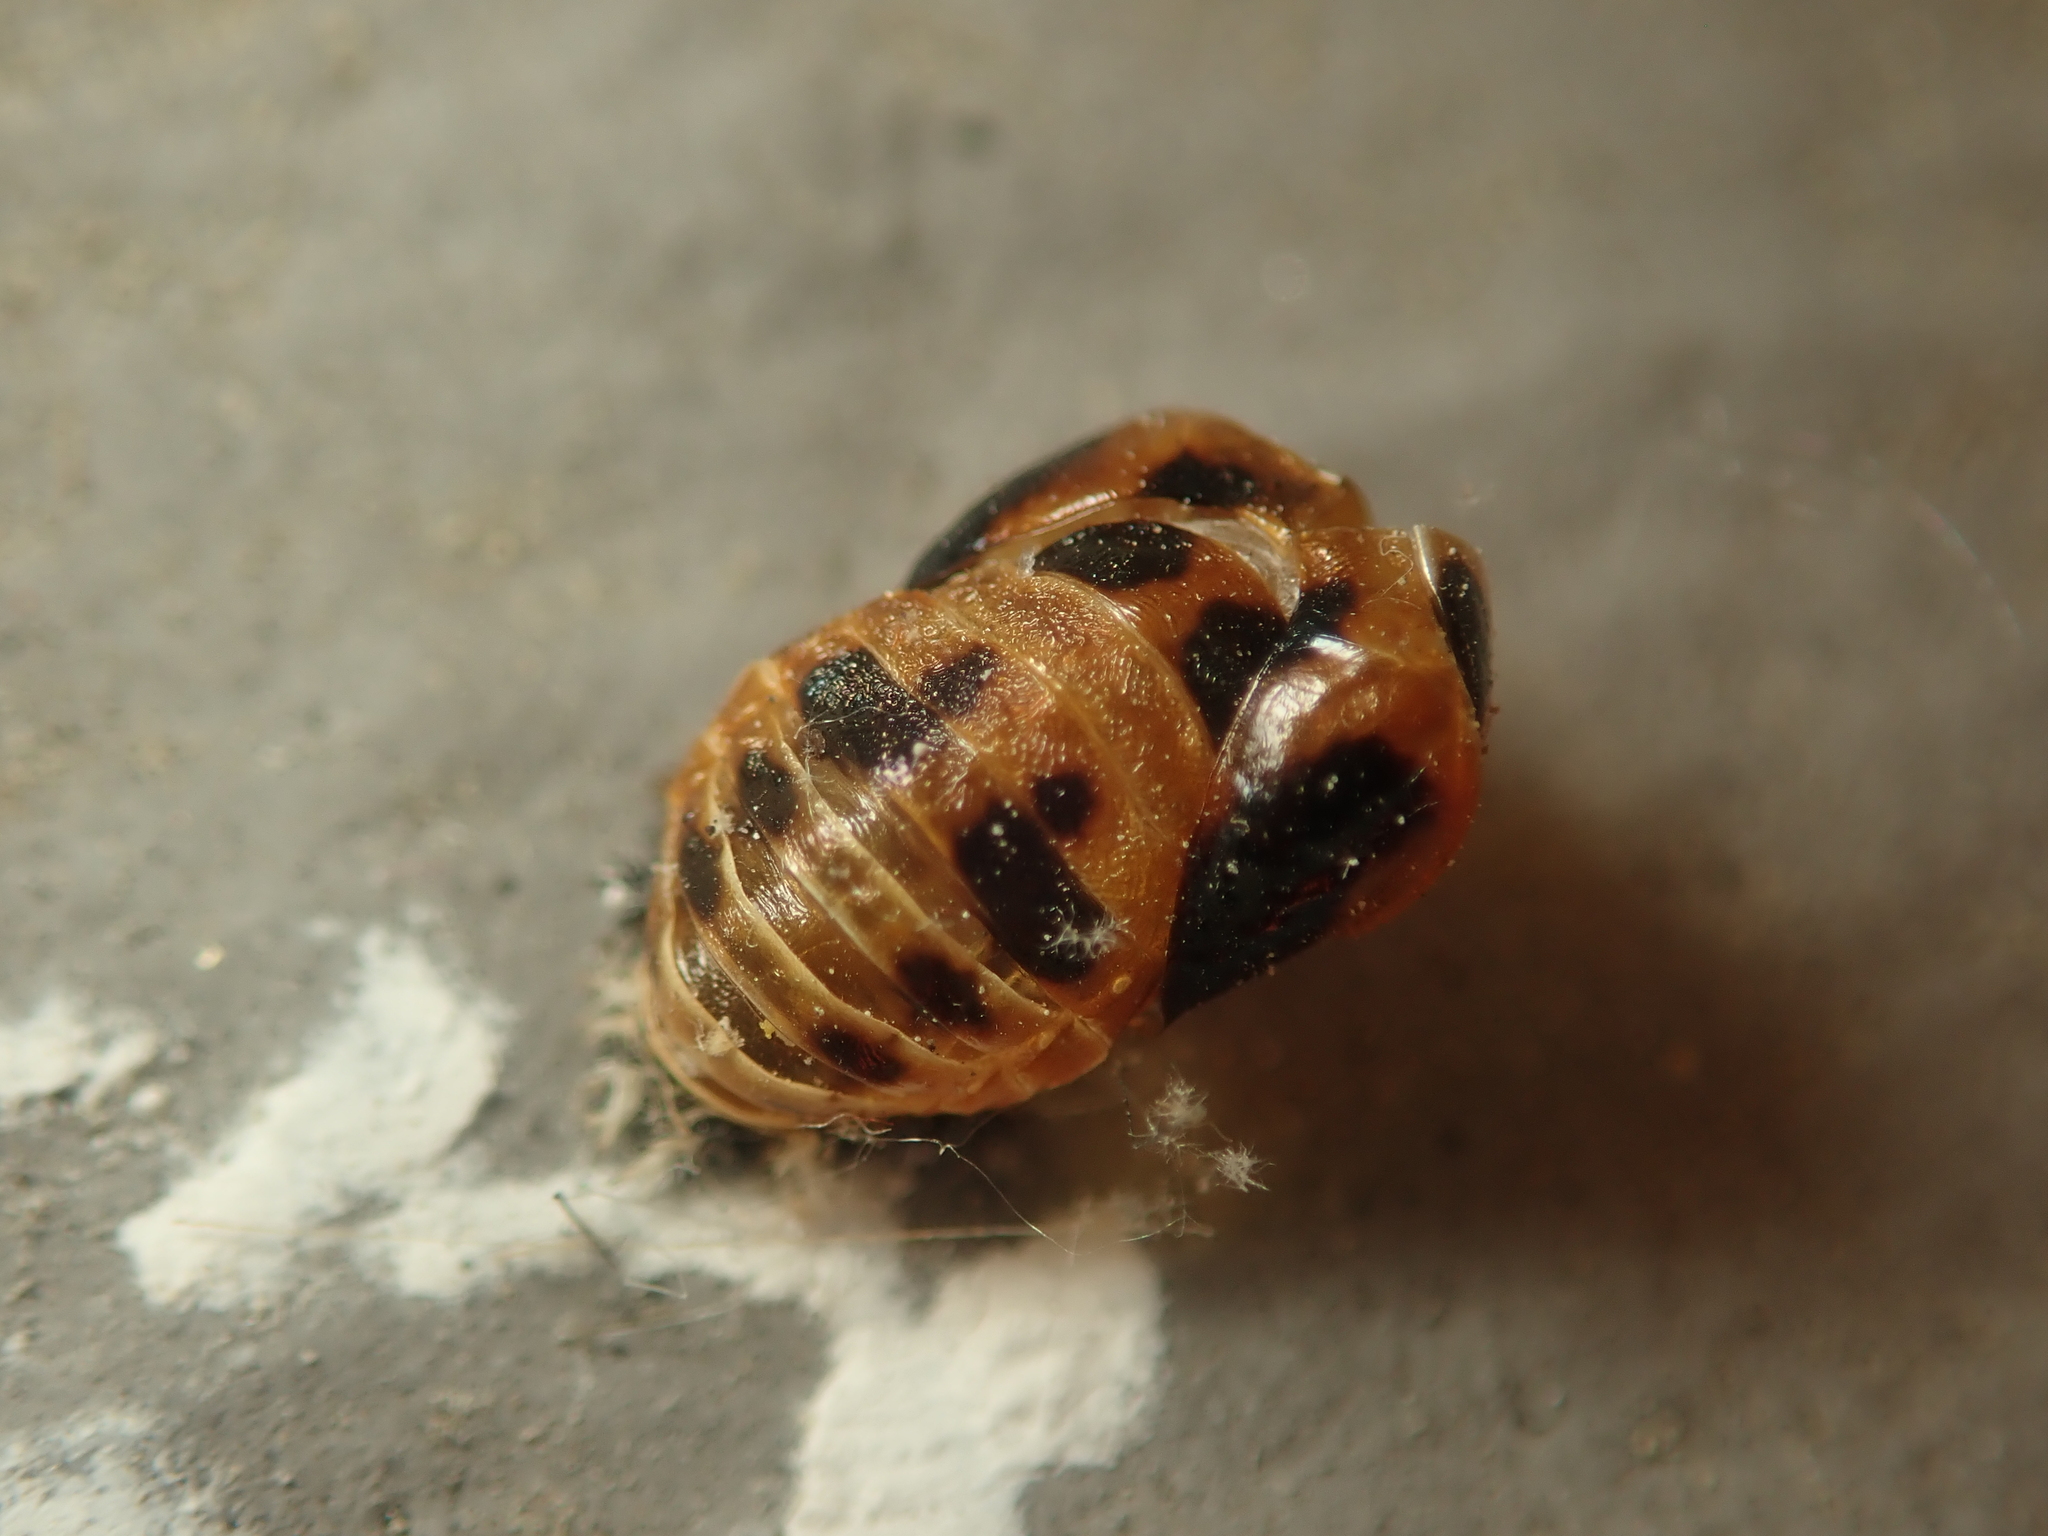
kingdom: Animalia
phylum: Arthropoda
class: Insecta
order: Coleoptera
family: Coccinellidae
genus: Harmonia
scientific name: Harmonia axyridis
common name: Harlequin ladybird
